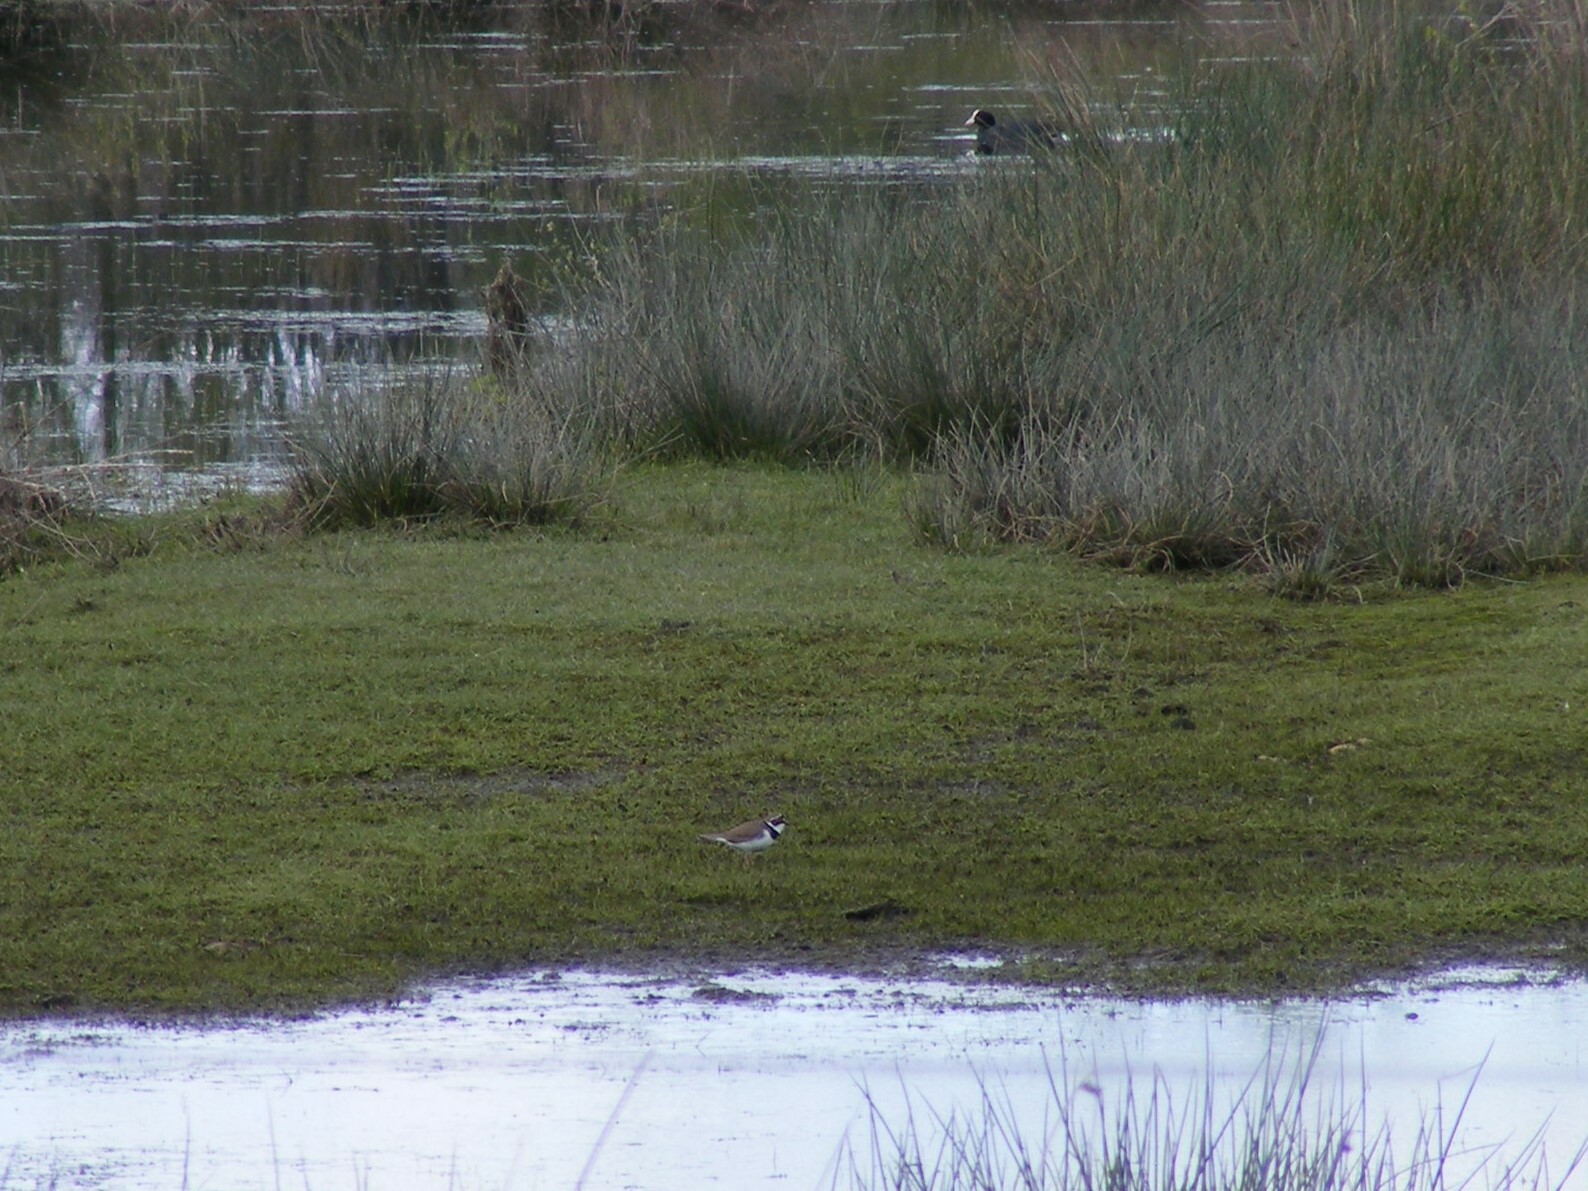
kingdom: Animalia
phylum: Chordata
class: Aves
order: Charadriiformes
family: Charadriidae
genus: Charadrius
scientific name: Charadrius dubius
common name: Little ringed plover
